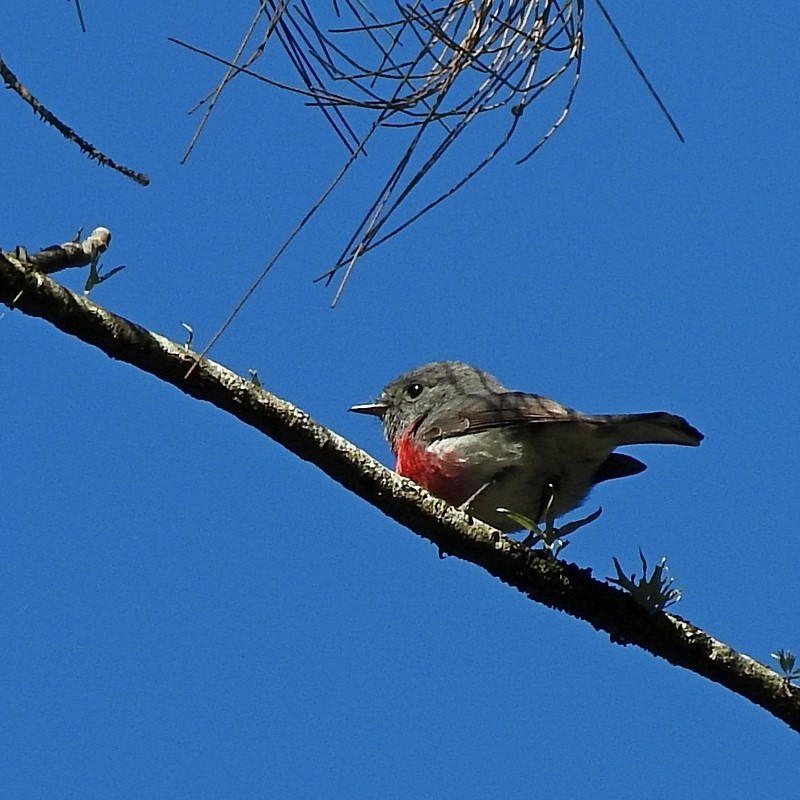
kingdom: Animalia
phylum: Chordata
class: Aves
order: Passeriformes
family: Petroicidae
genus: Petroica
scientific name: Petroica rosea
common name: Rose robin
